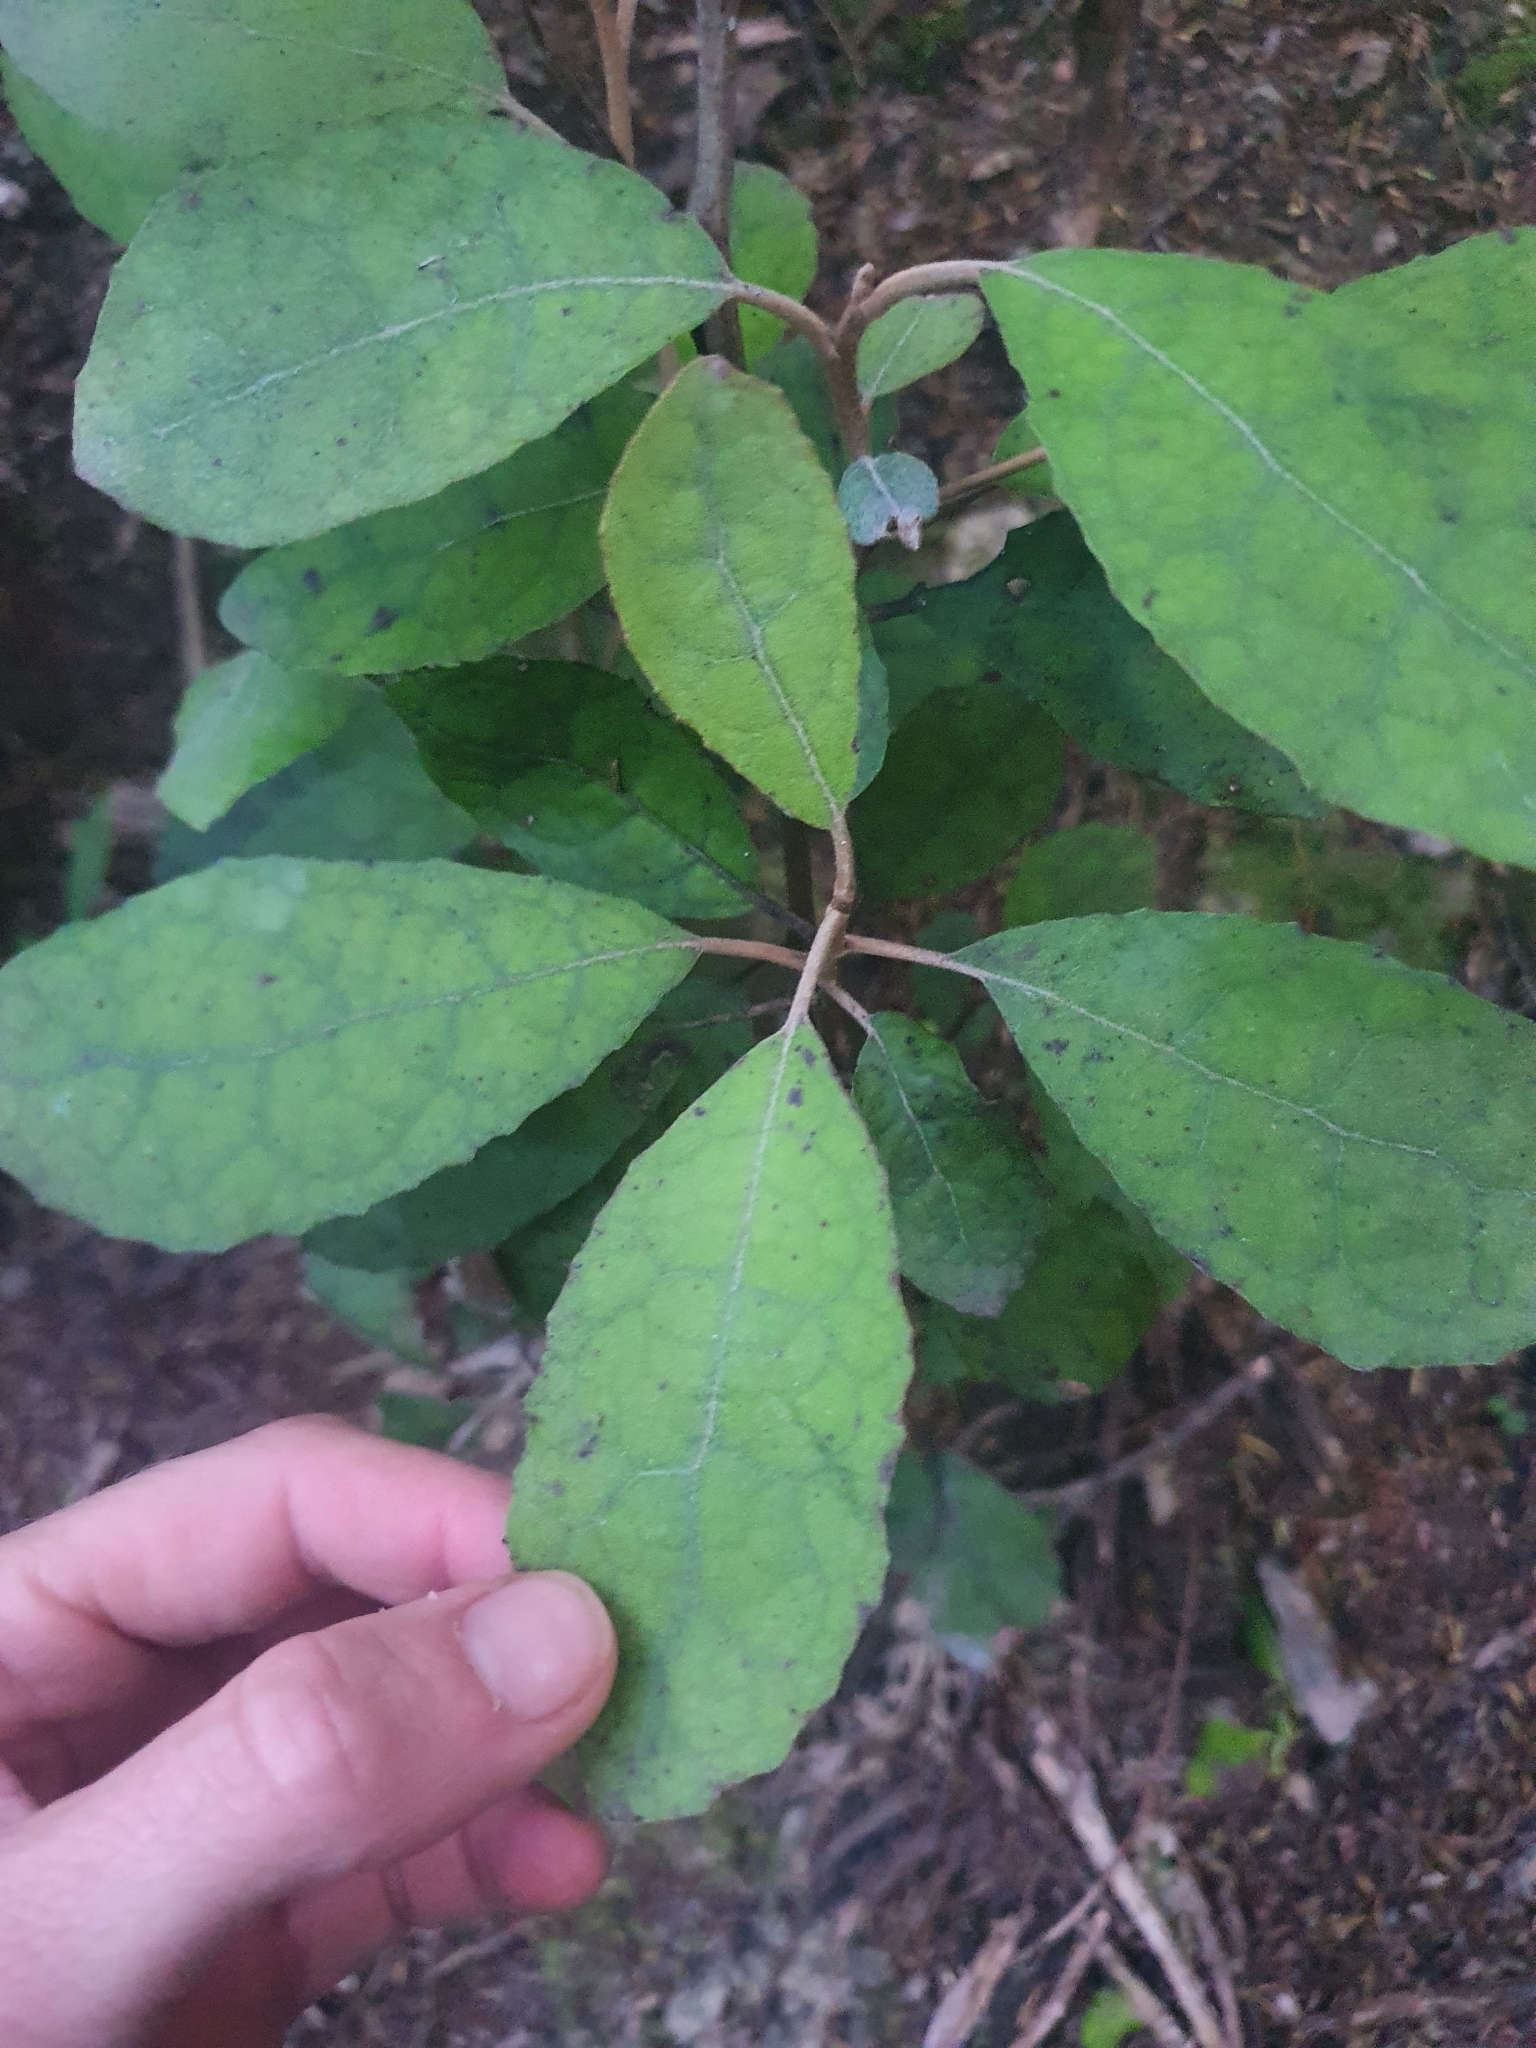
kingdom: Plantae
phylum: Tracheophyta
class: Magnoliopsida
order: Asterales
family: Asteraceae
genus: Olearia
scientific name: Olearia rani
